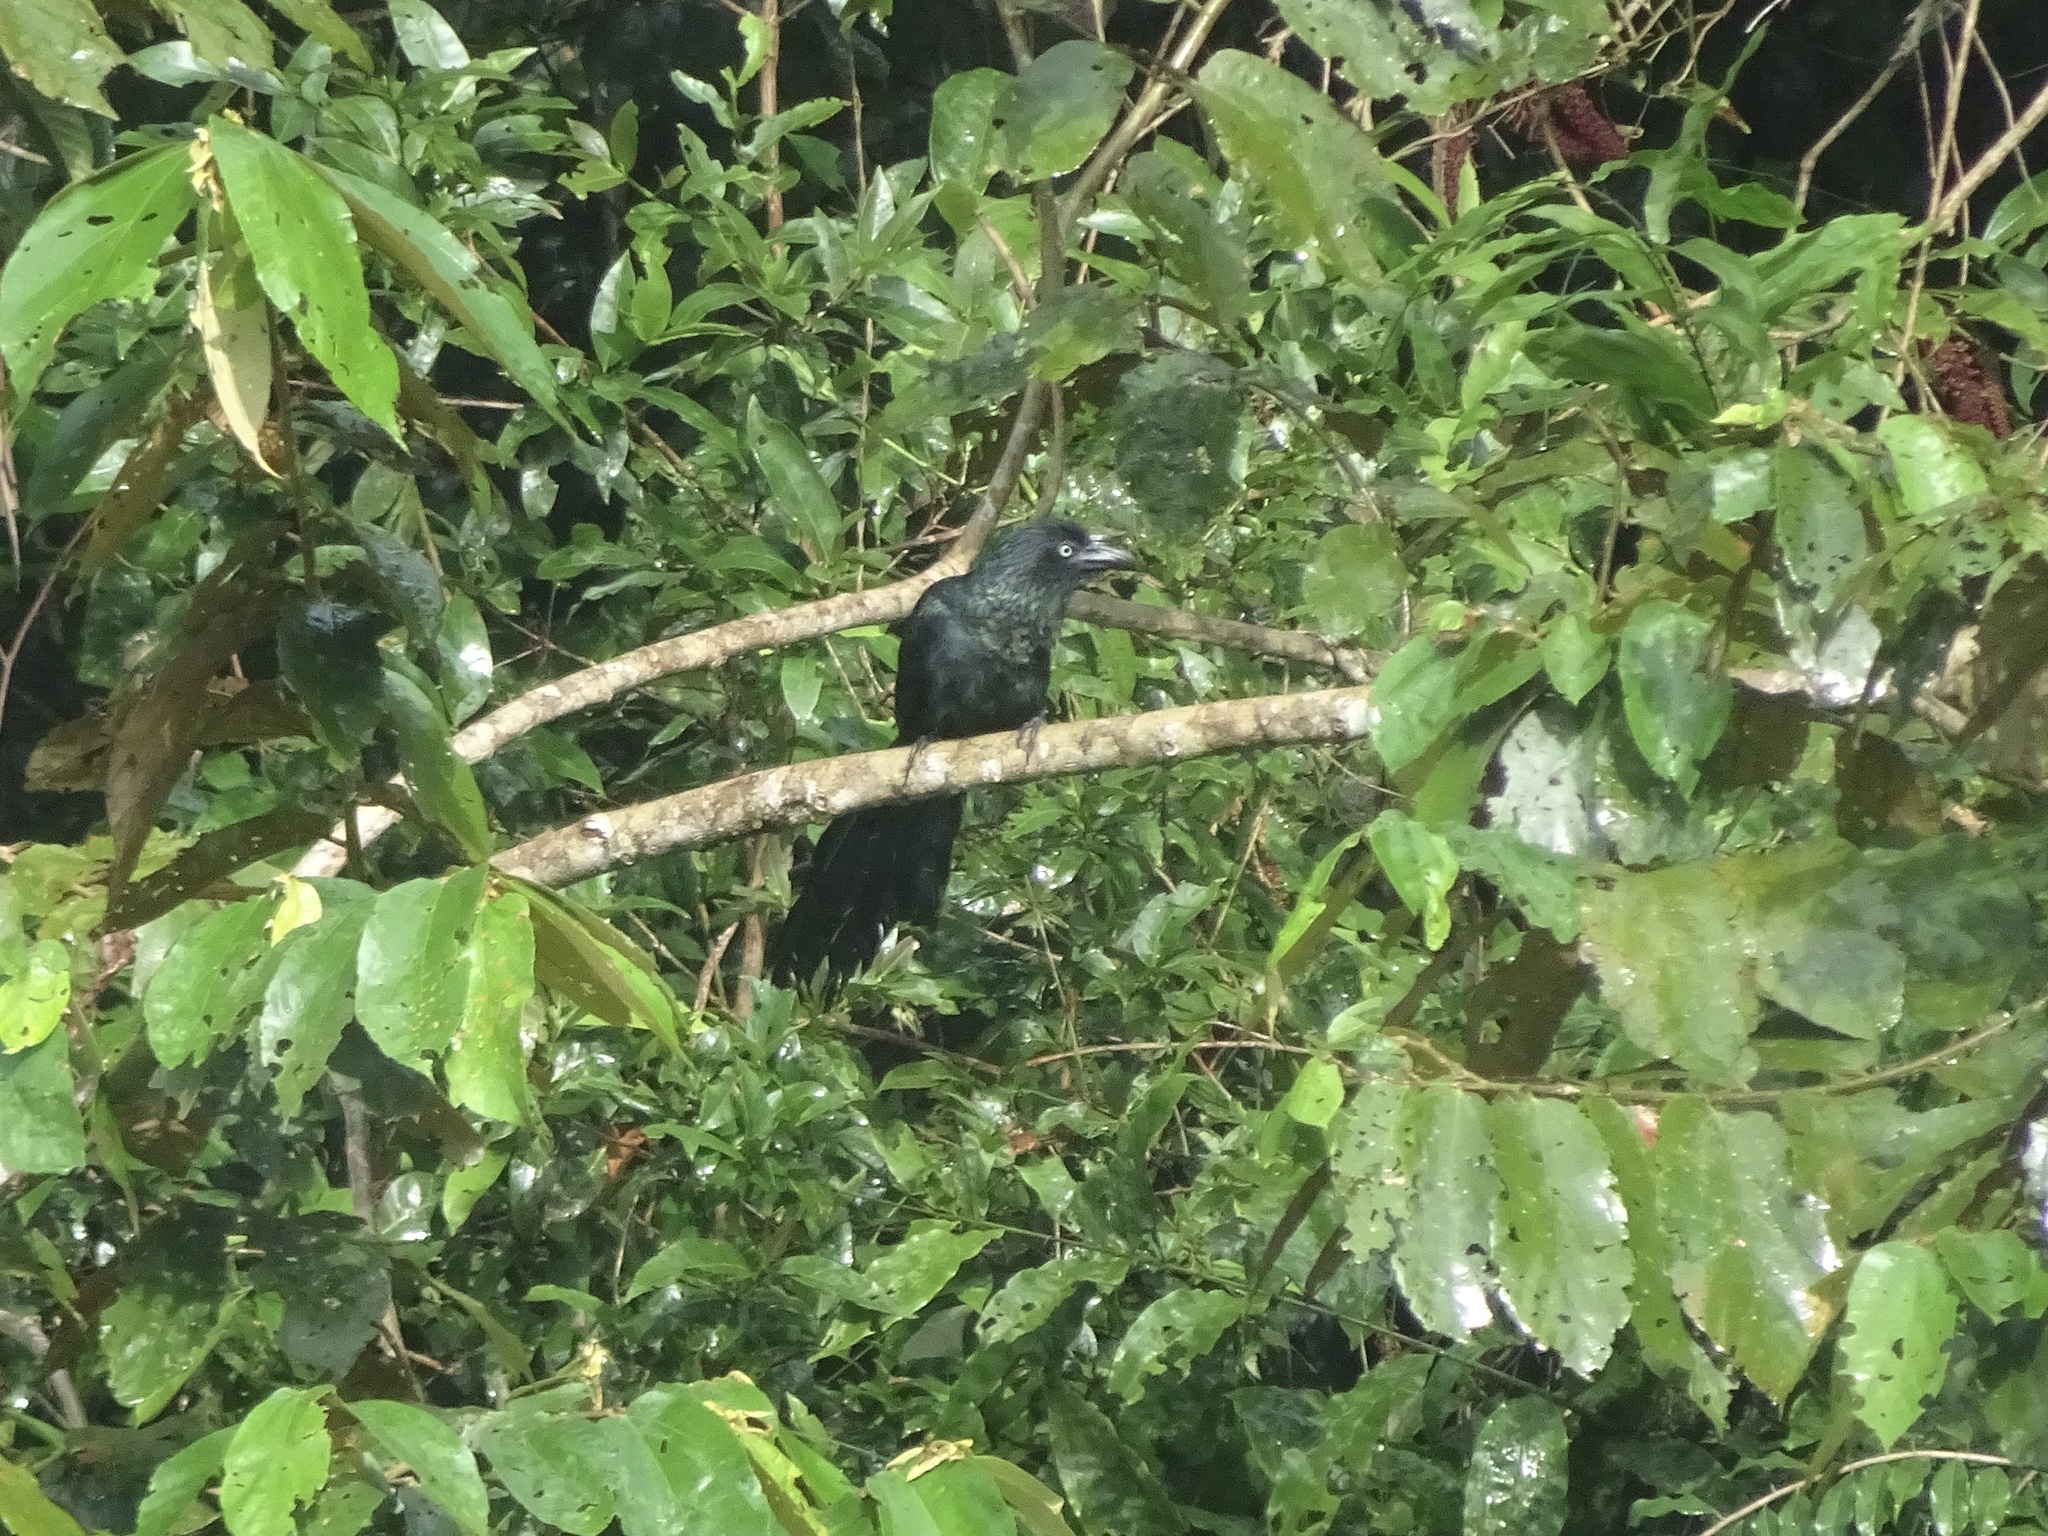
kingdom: Animalia
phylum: Chordata
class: Aves
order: Cuculiformes
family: Cuculidae
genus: Crotophaga
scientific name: Crotophaga major
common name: Greater ani
